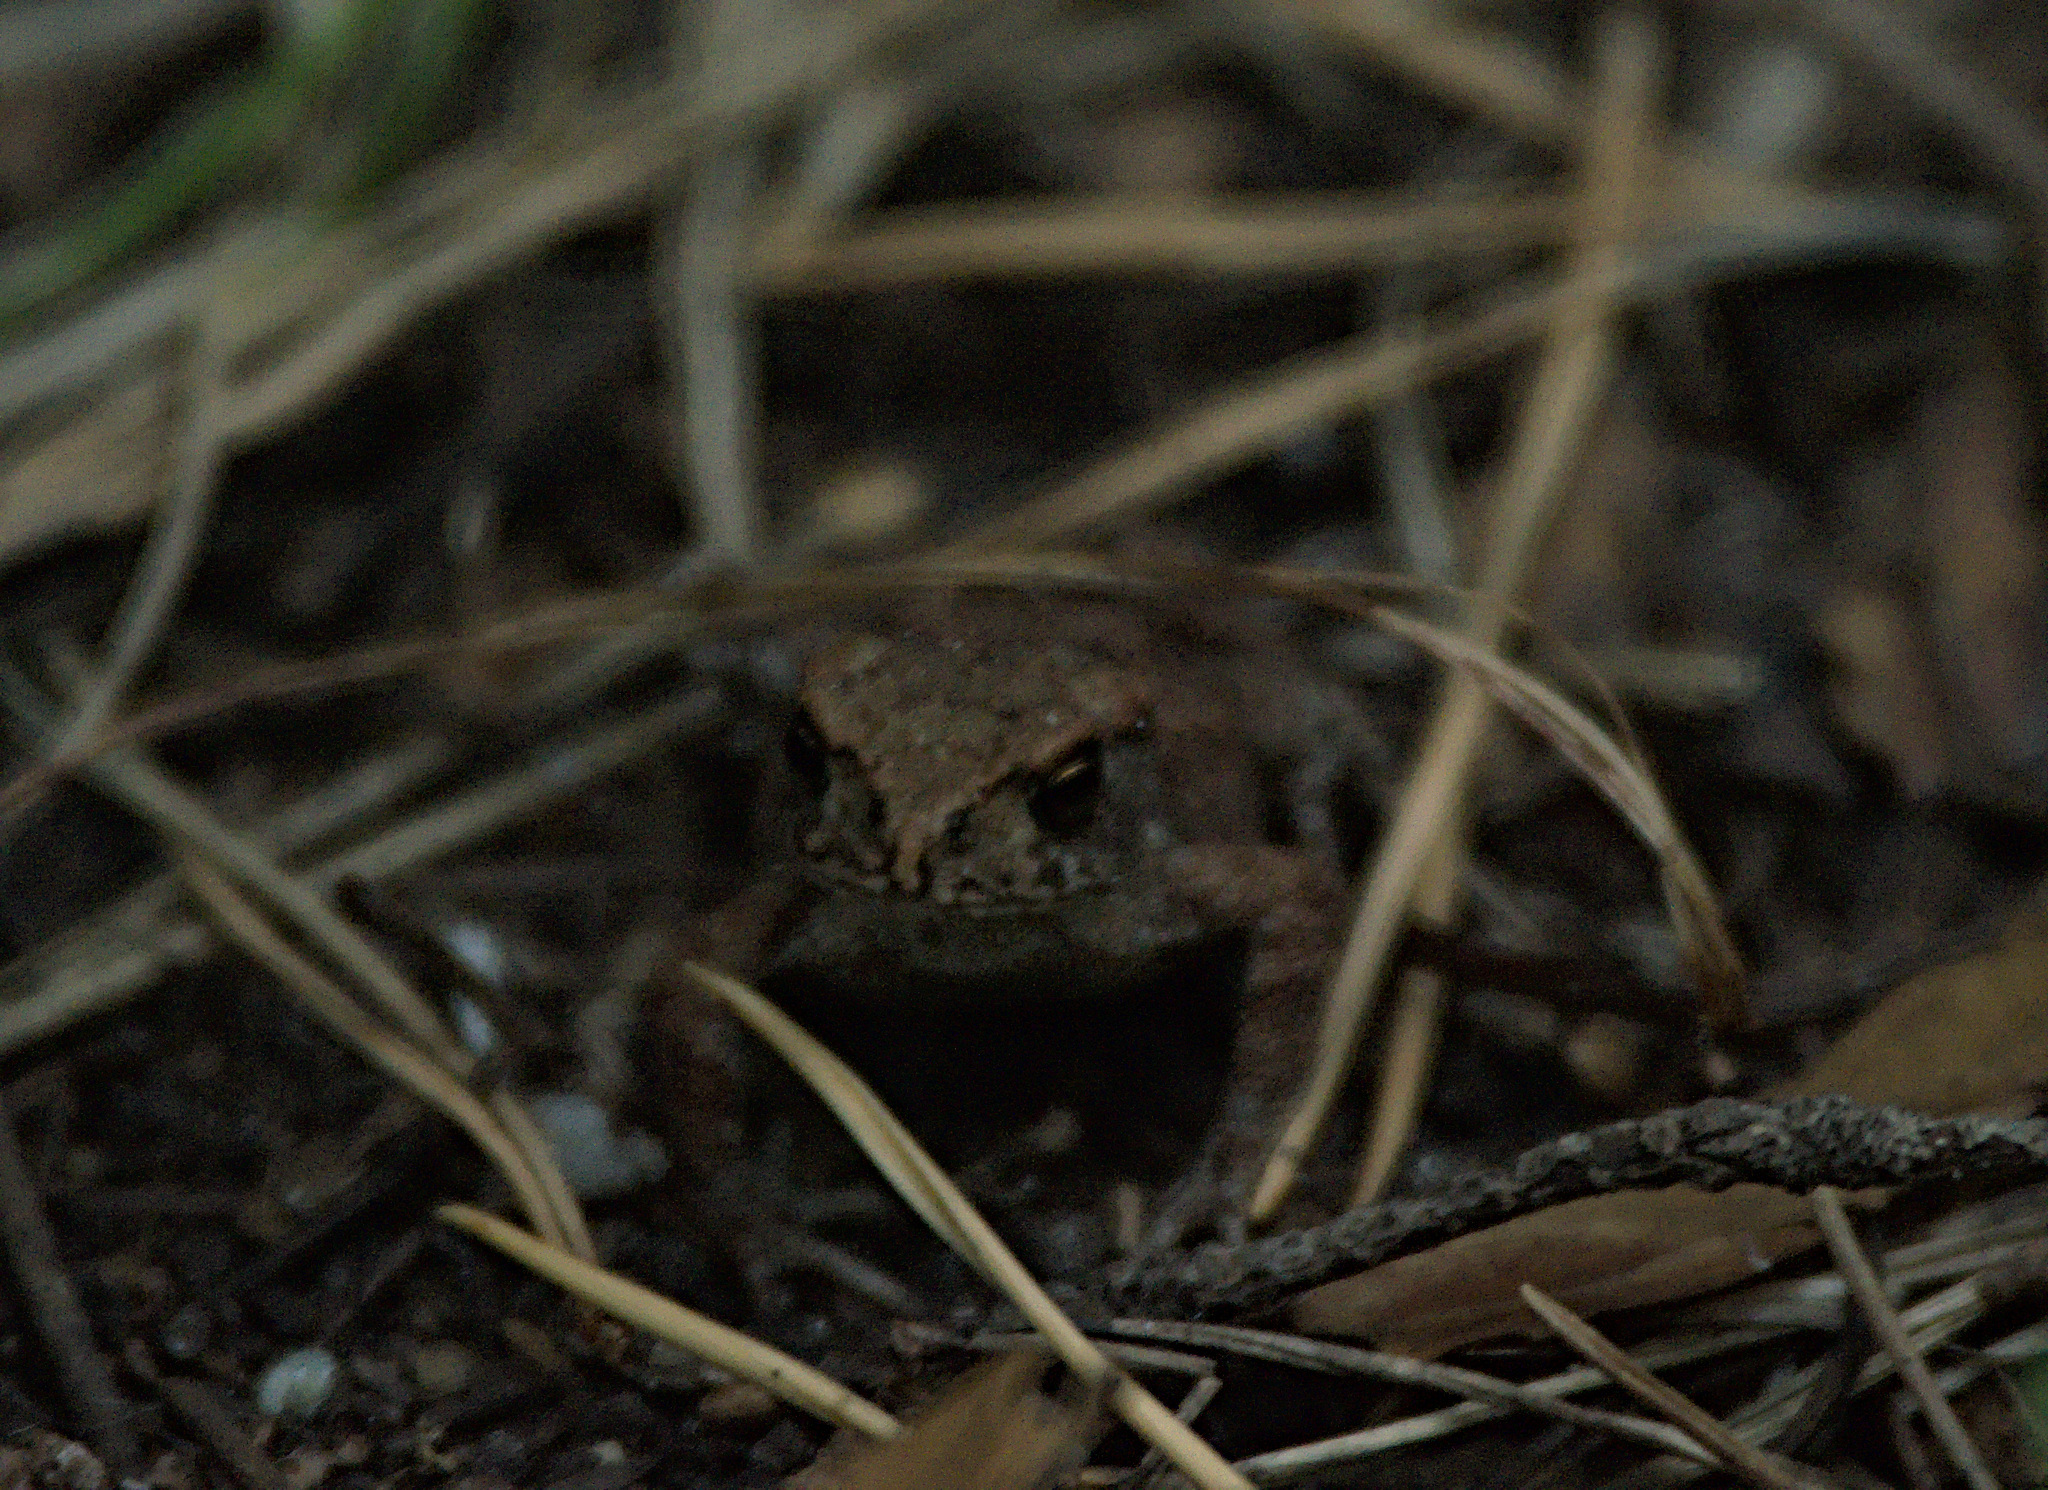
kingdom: Animalia
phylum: Chordata
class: Amphibia
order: Anura
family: Bufonidae
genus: Bufo
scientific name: Bufo bufo
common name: Common toad
